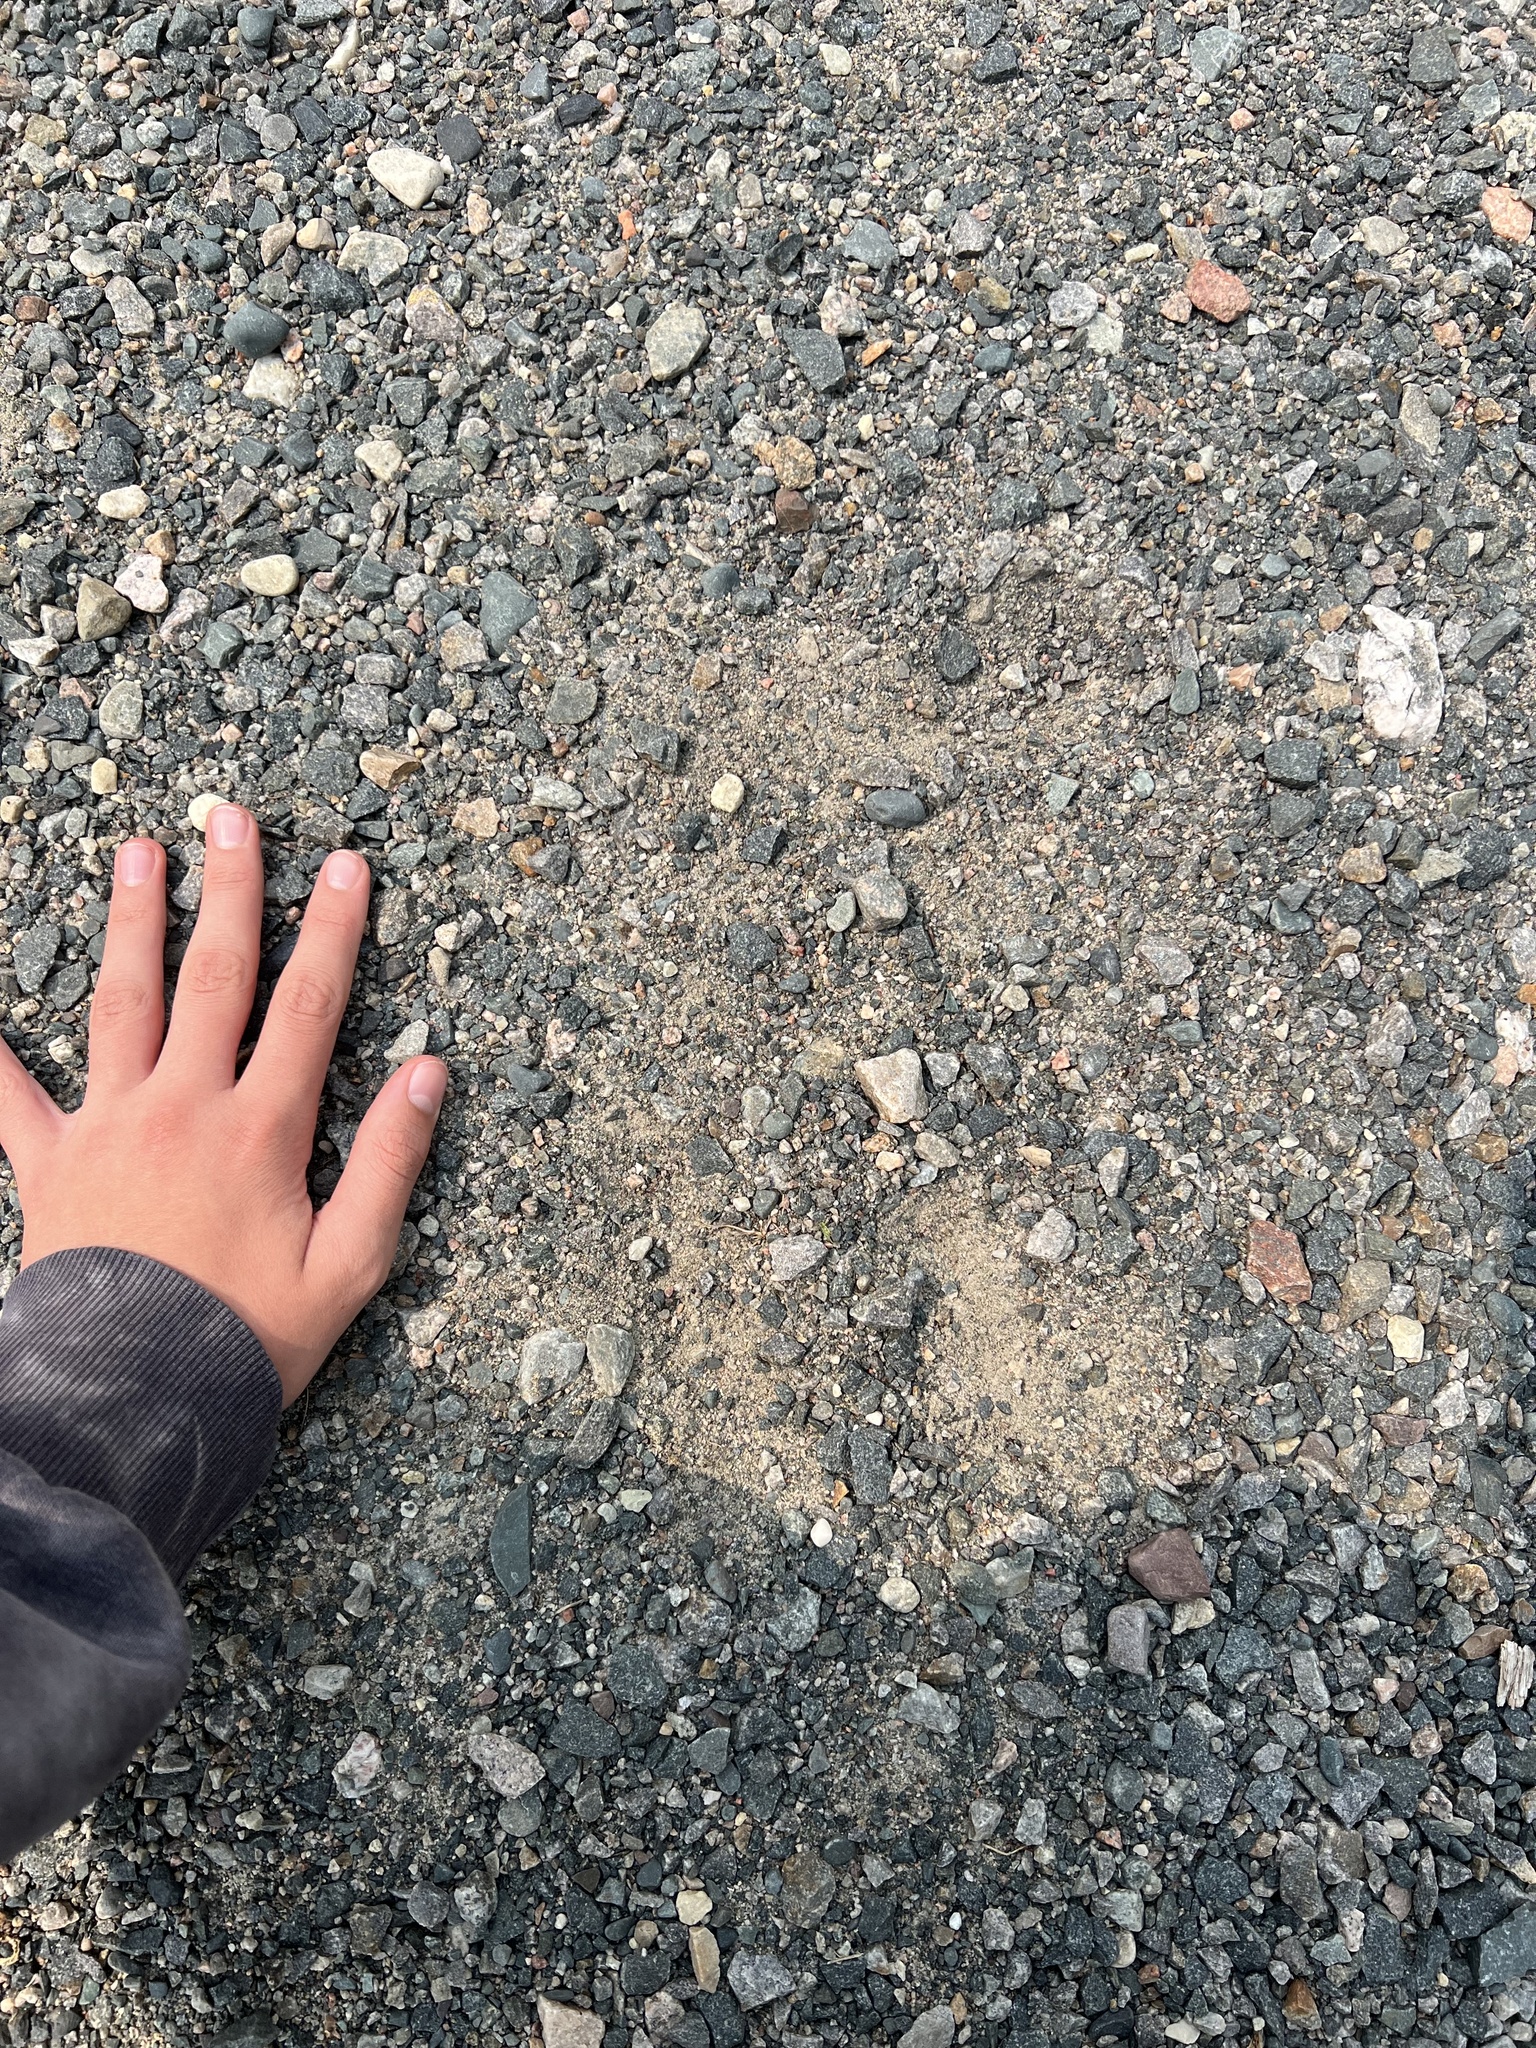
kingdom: Animalia
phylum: Chordata
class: Mammalia
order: Artiodactyla
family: Cervidae
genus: Alces
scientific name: Alces alces
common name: Moose
